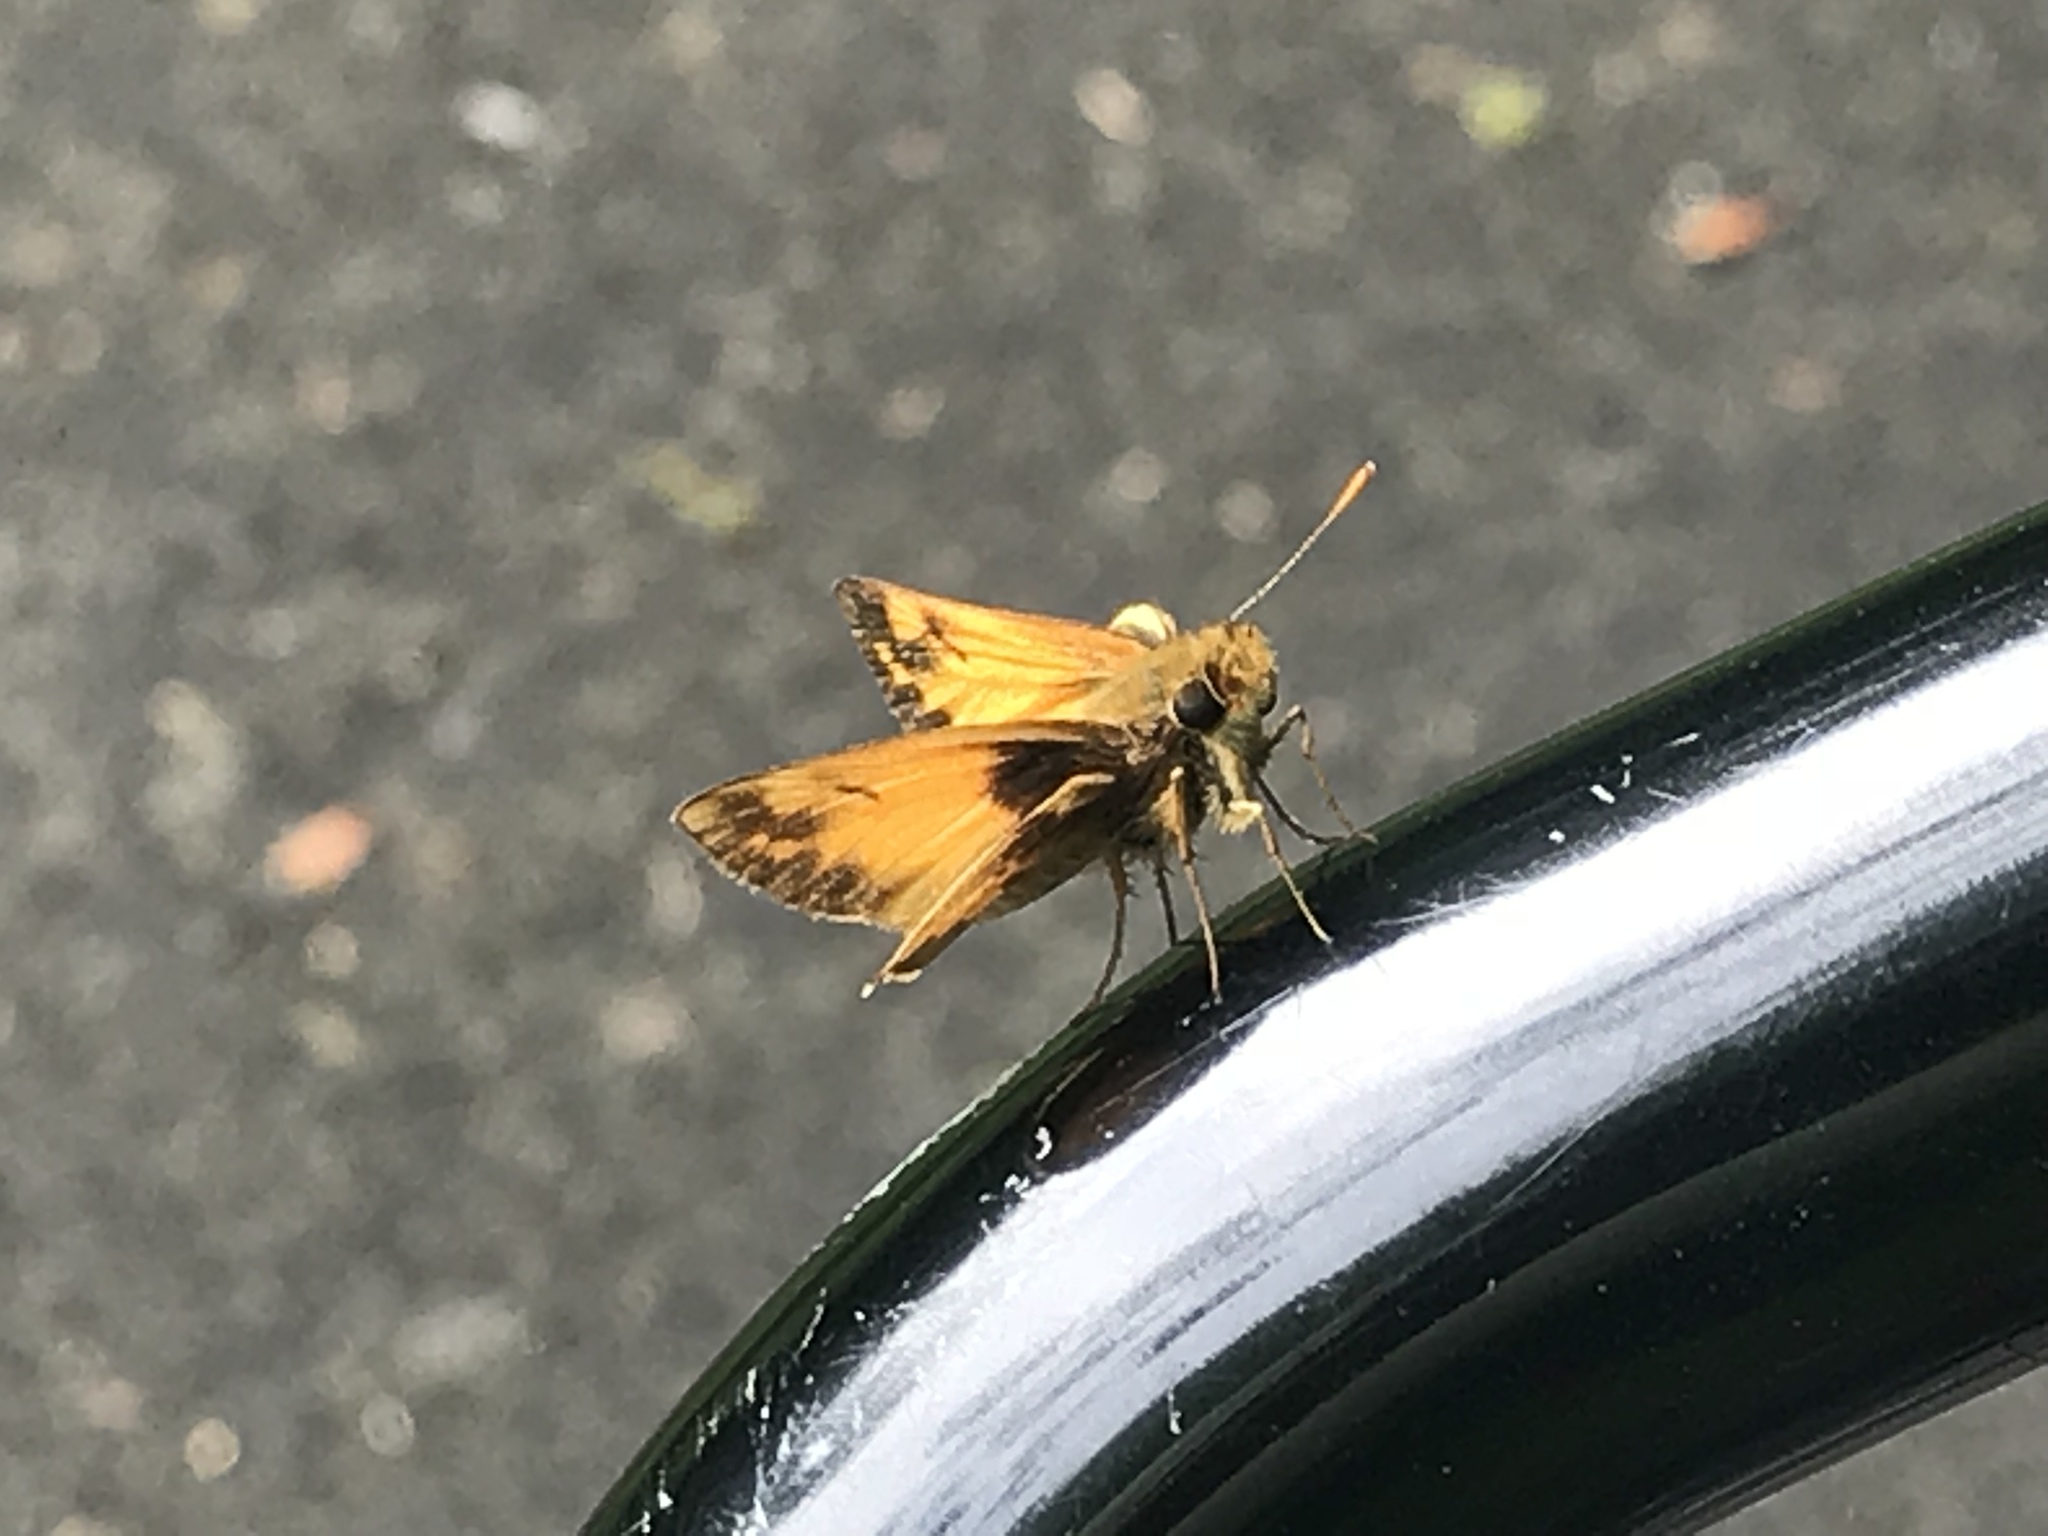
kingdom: Animalia
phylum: Arthropoda
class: Insecta
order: Lepidoptera
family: Hesperiidae
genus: Lon
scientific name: Lon zabulon
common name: Zabulon skipper
